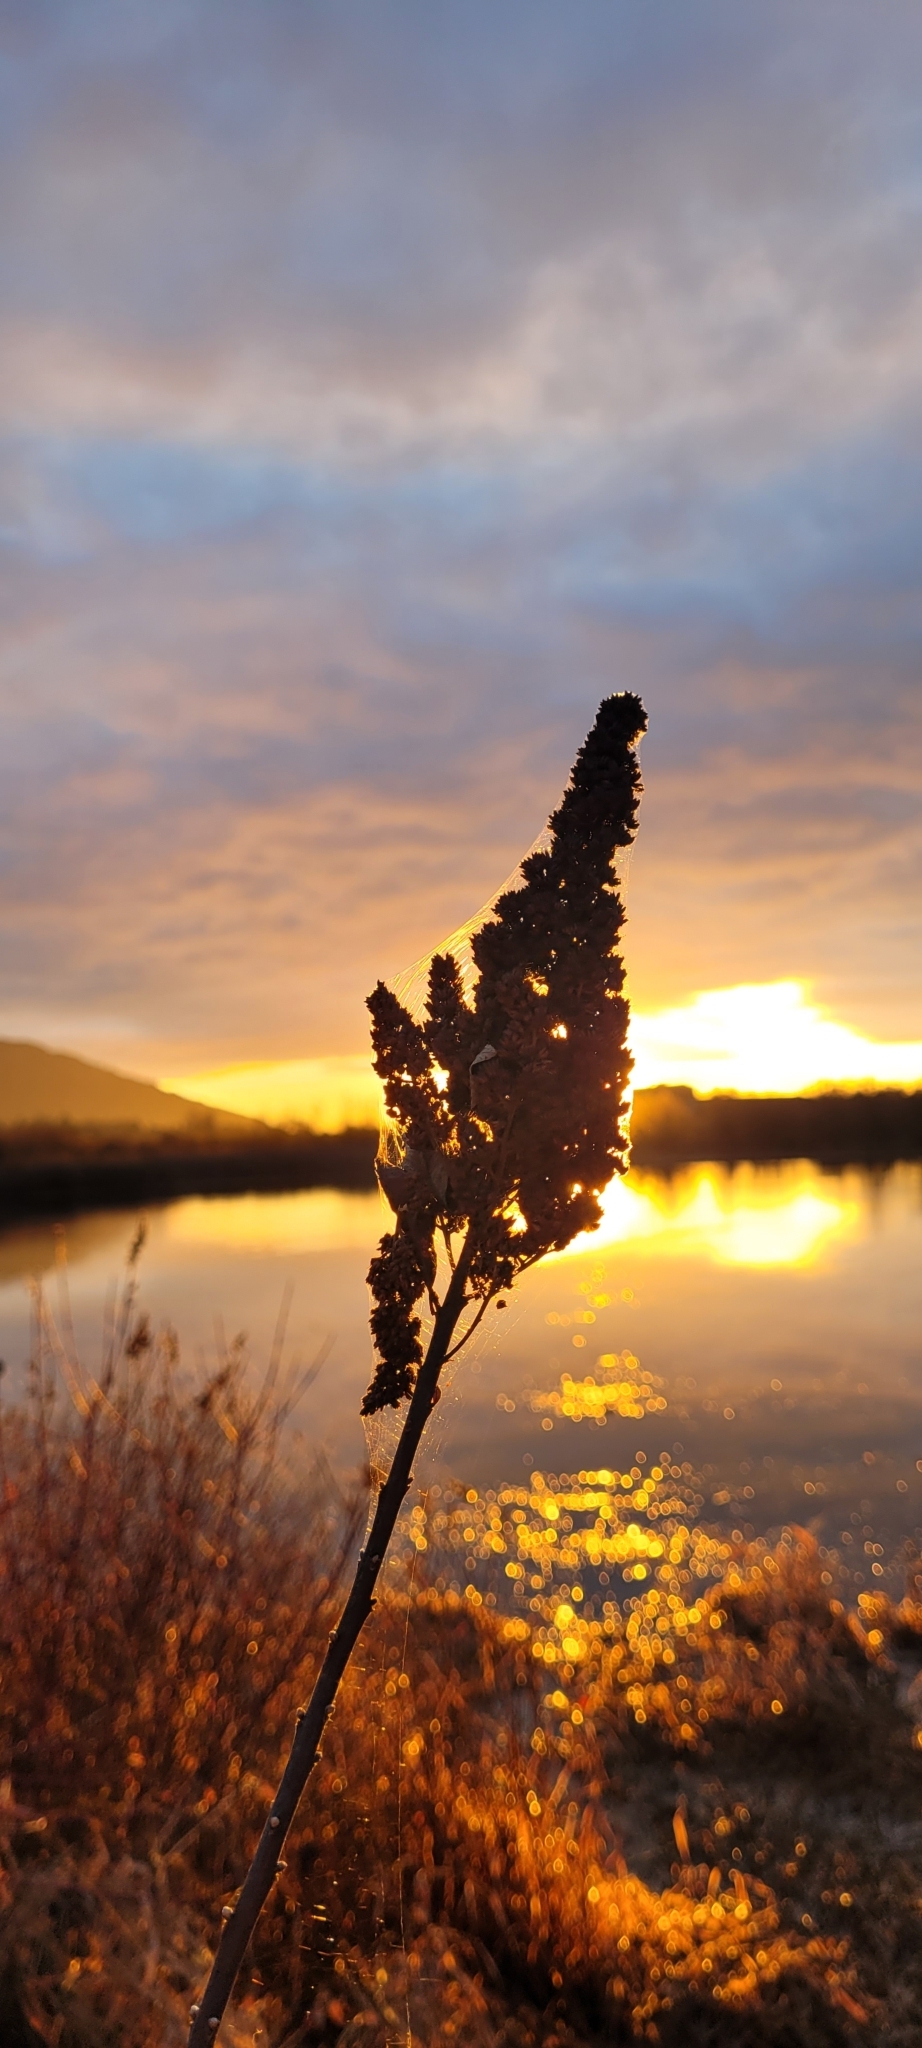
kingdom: Plantae
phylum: Tracheophyta
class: Magnoliopsida
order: Rosales
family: Rosaceae
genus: Spiraea
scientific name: Spiraea douglasii
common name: Steeplebush
